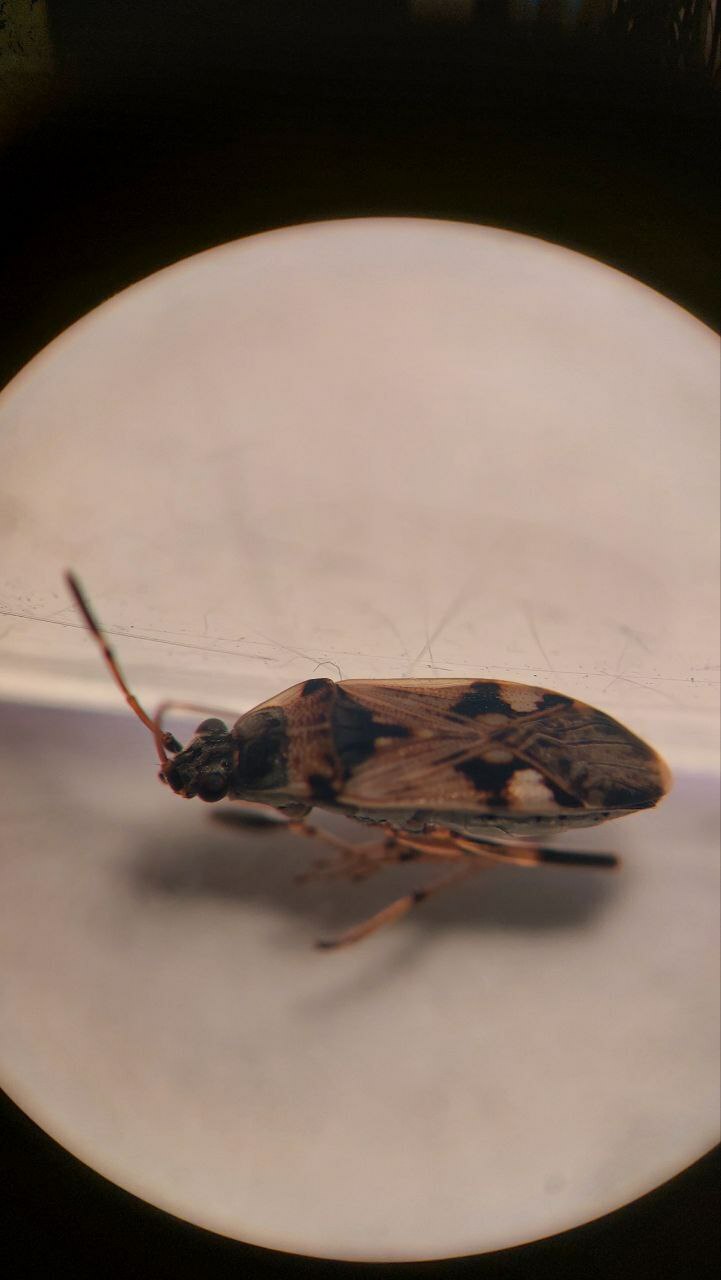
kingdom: Animalia
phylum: Arthropoda
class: Insecta
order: Hemiptera
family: Rhyparochromidae
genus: Beosus
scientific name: Beosus maritimus
